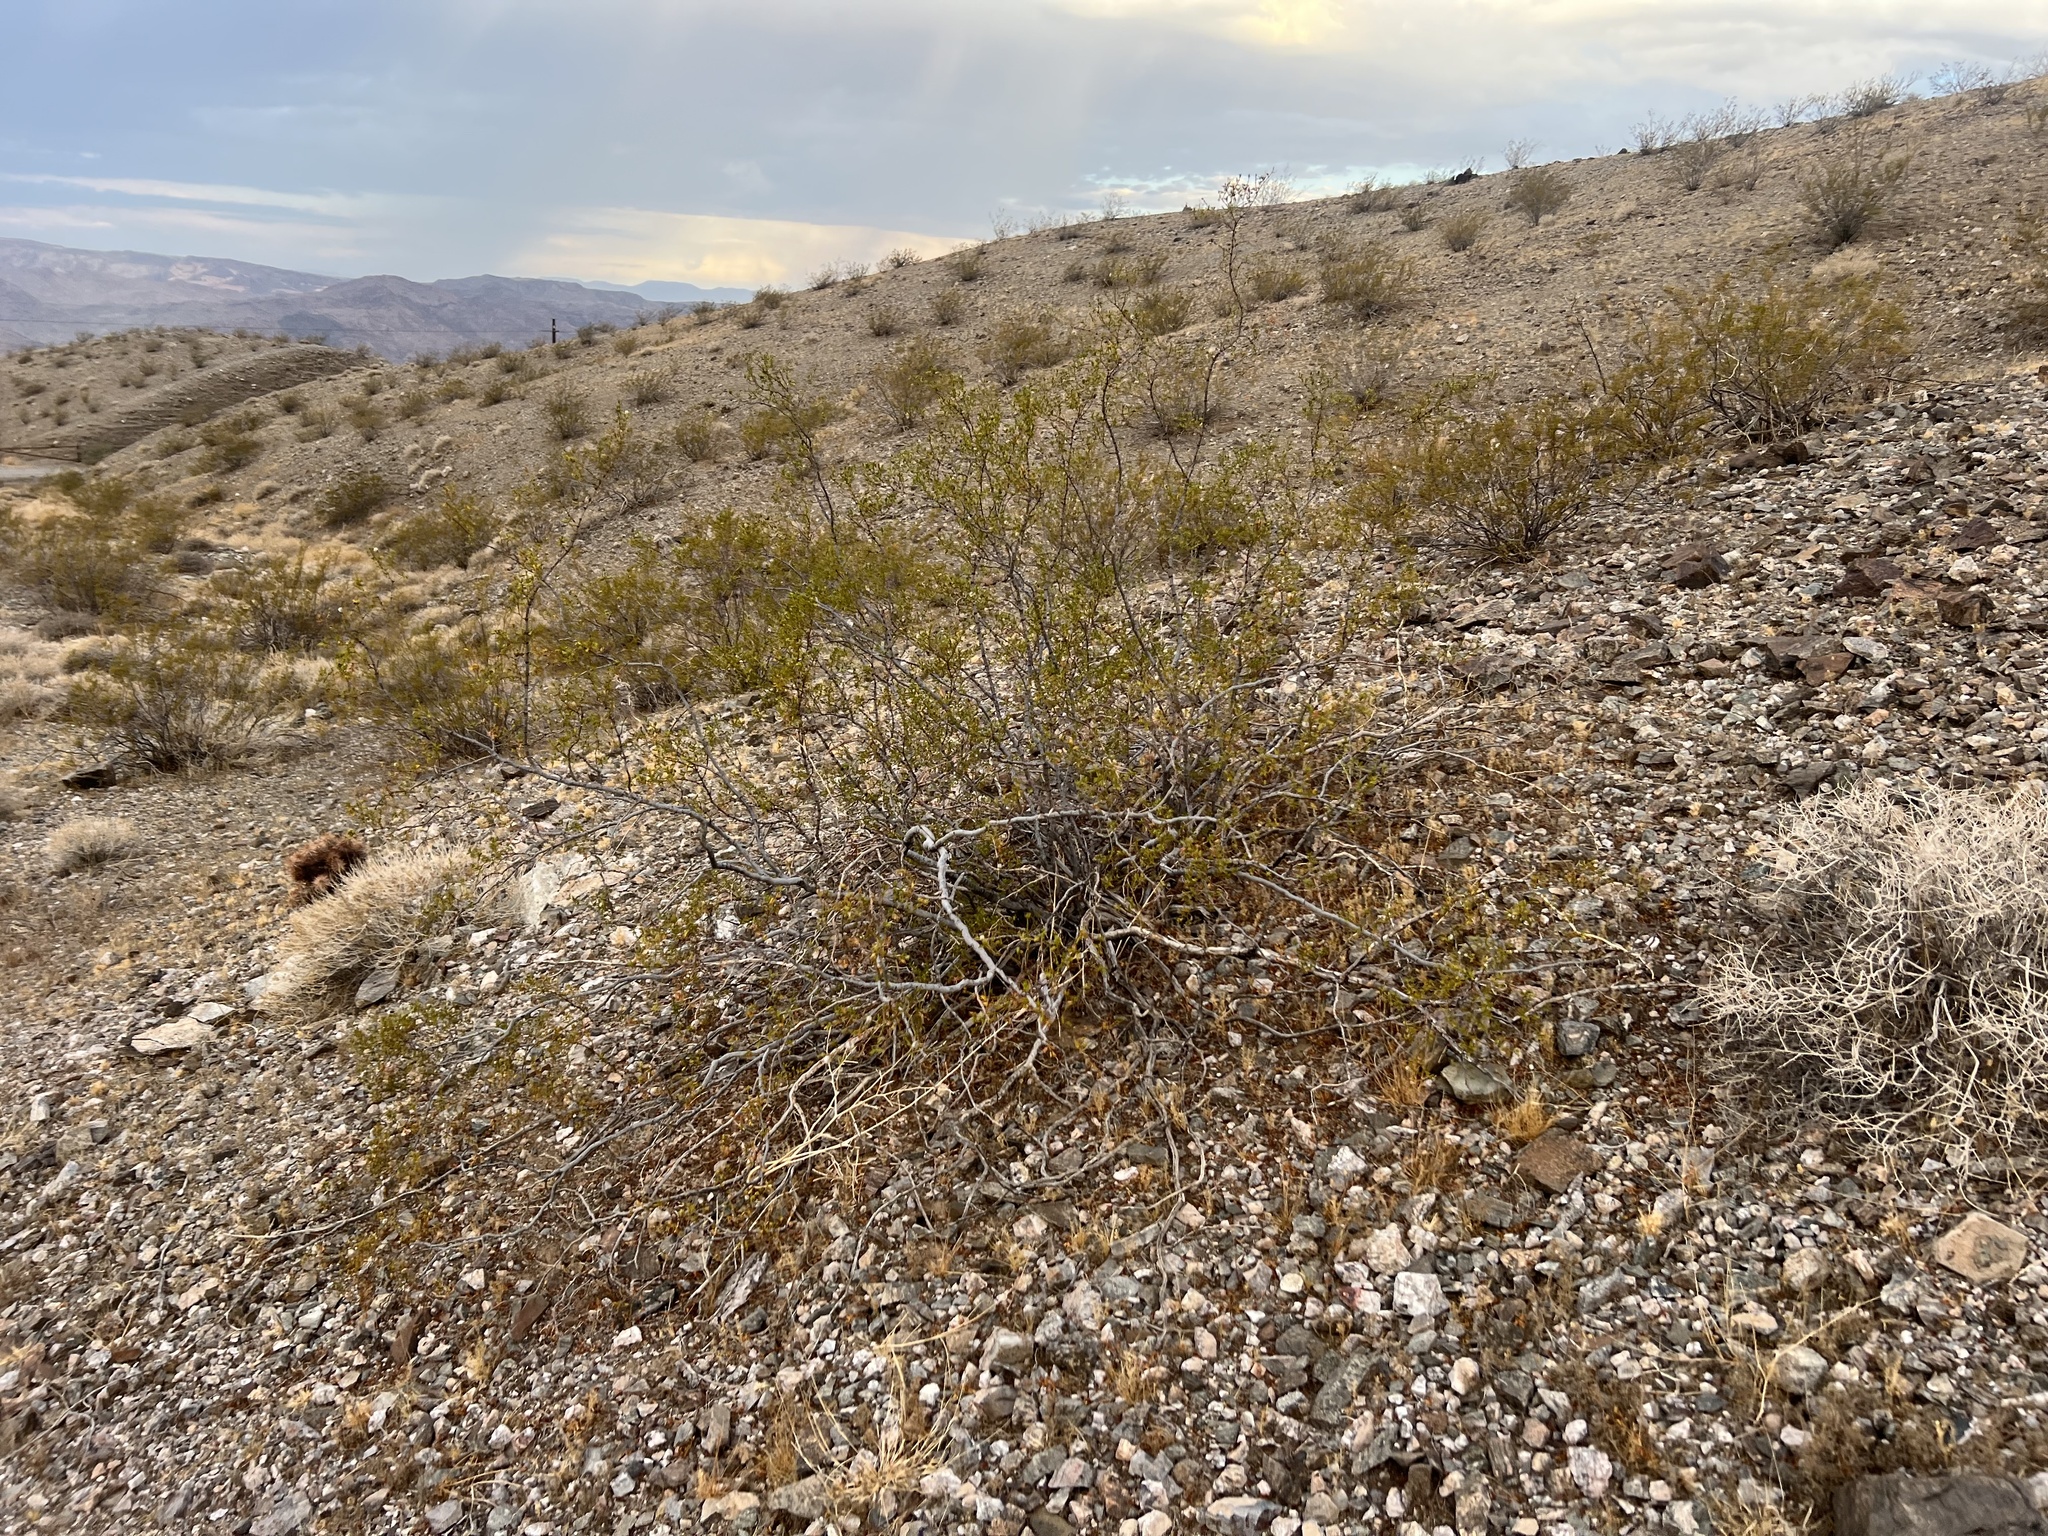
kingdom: Plantae
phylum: Tracheophyta
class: Magnoliopsida
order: Zygophyllales
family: Zygophyllaceae
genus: Larrea
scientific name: Larrea tridentata
